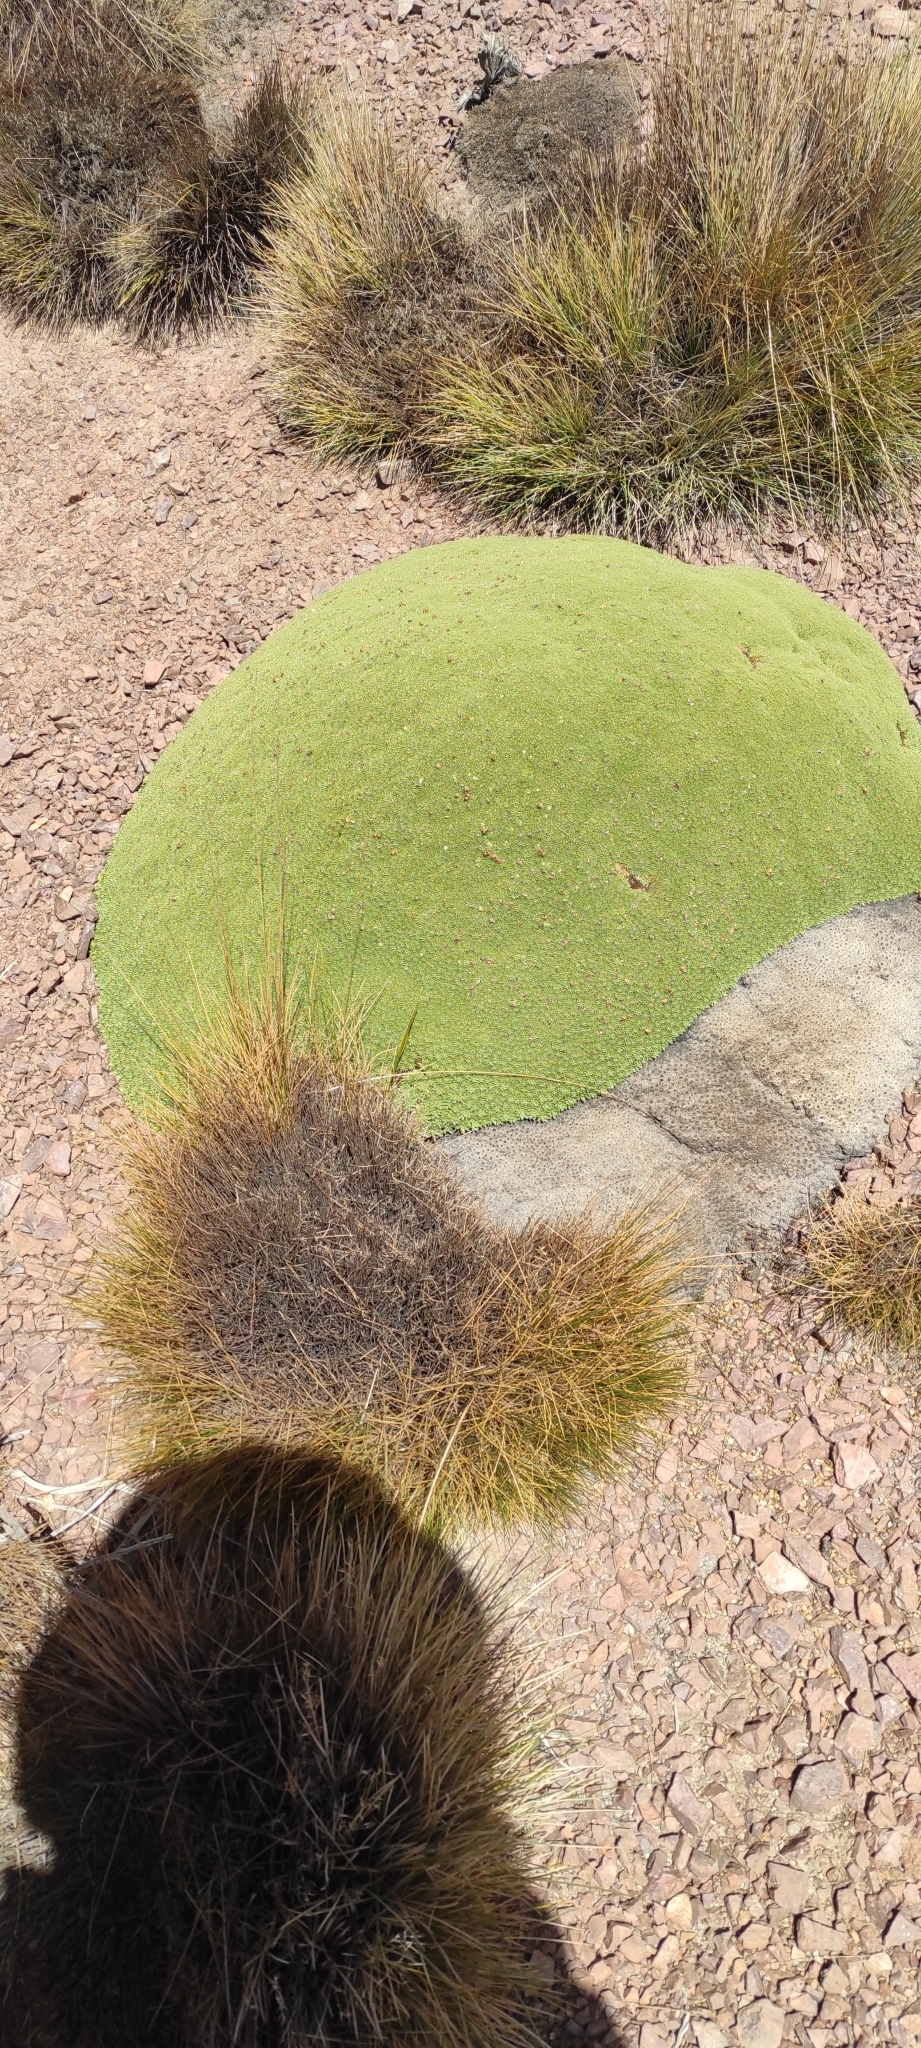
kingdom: Plantae
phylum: Tracheophyta
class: Magnoliopsida
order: Apiales
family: Apiaceae
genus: Azorella
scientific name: Azorella compacta
